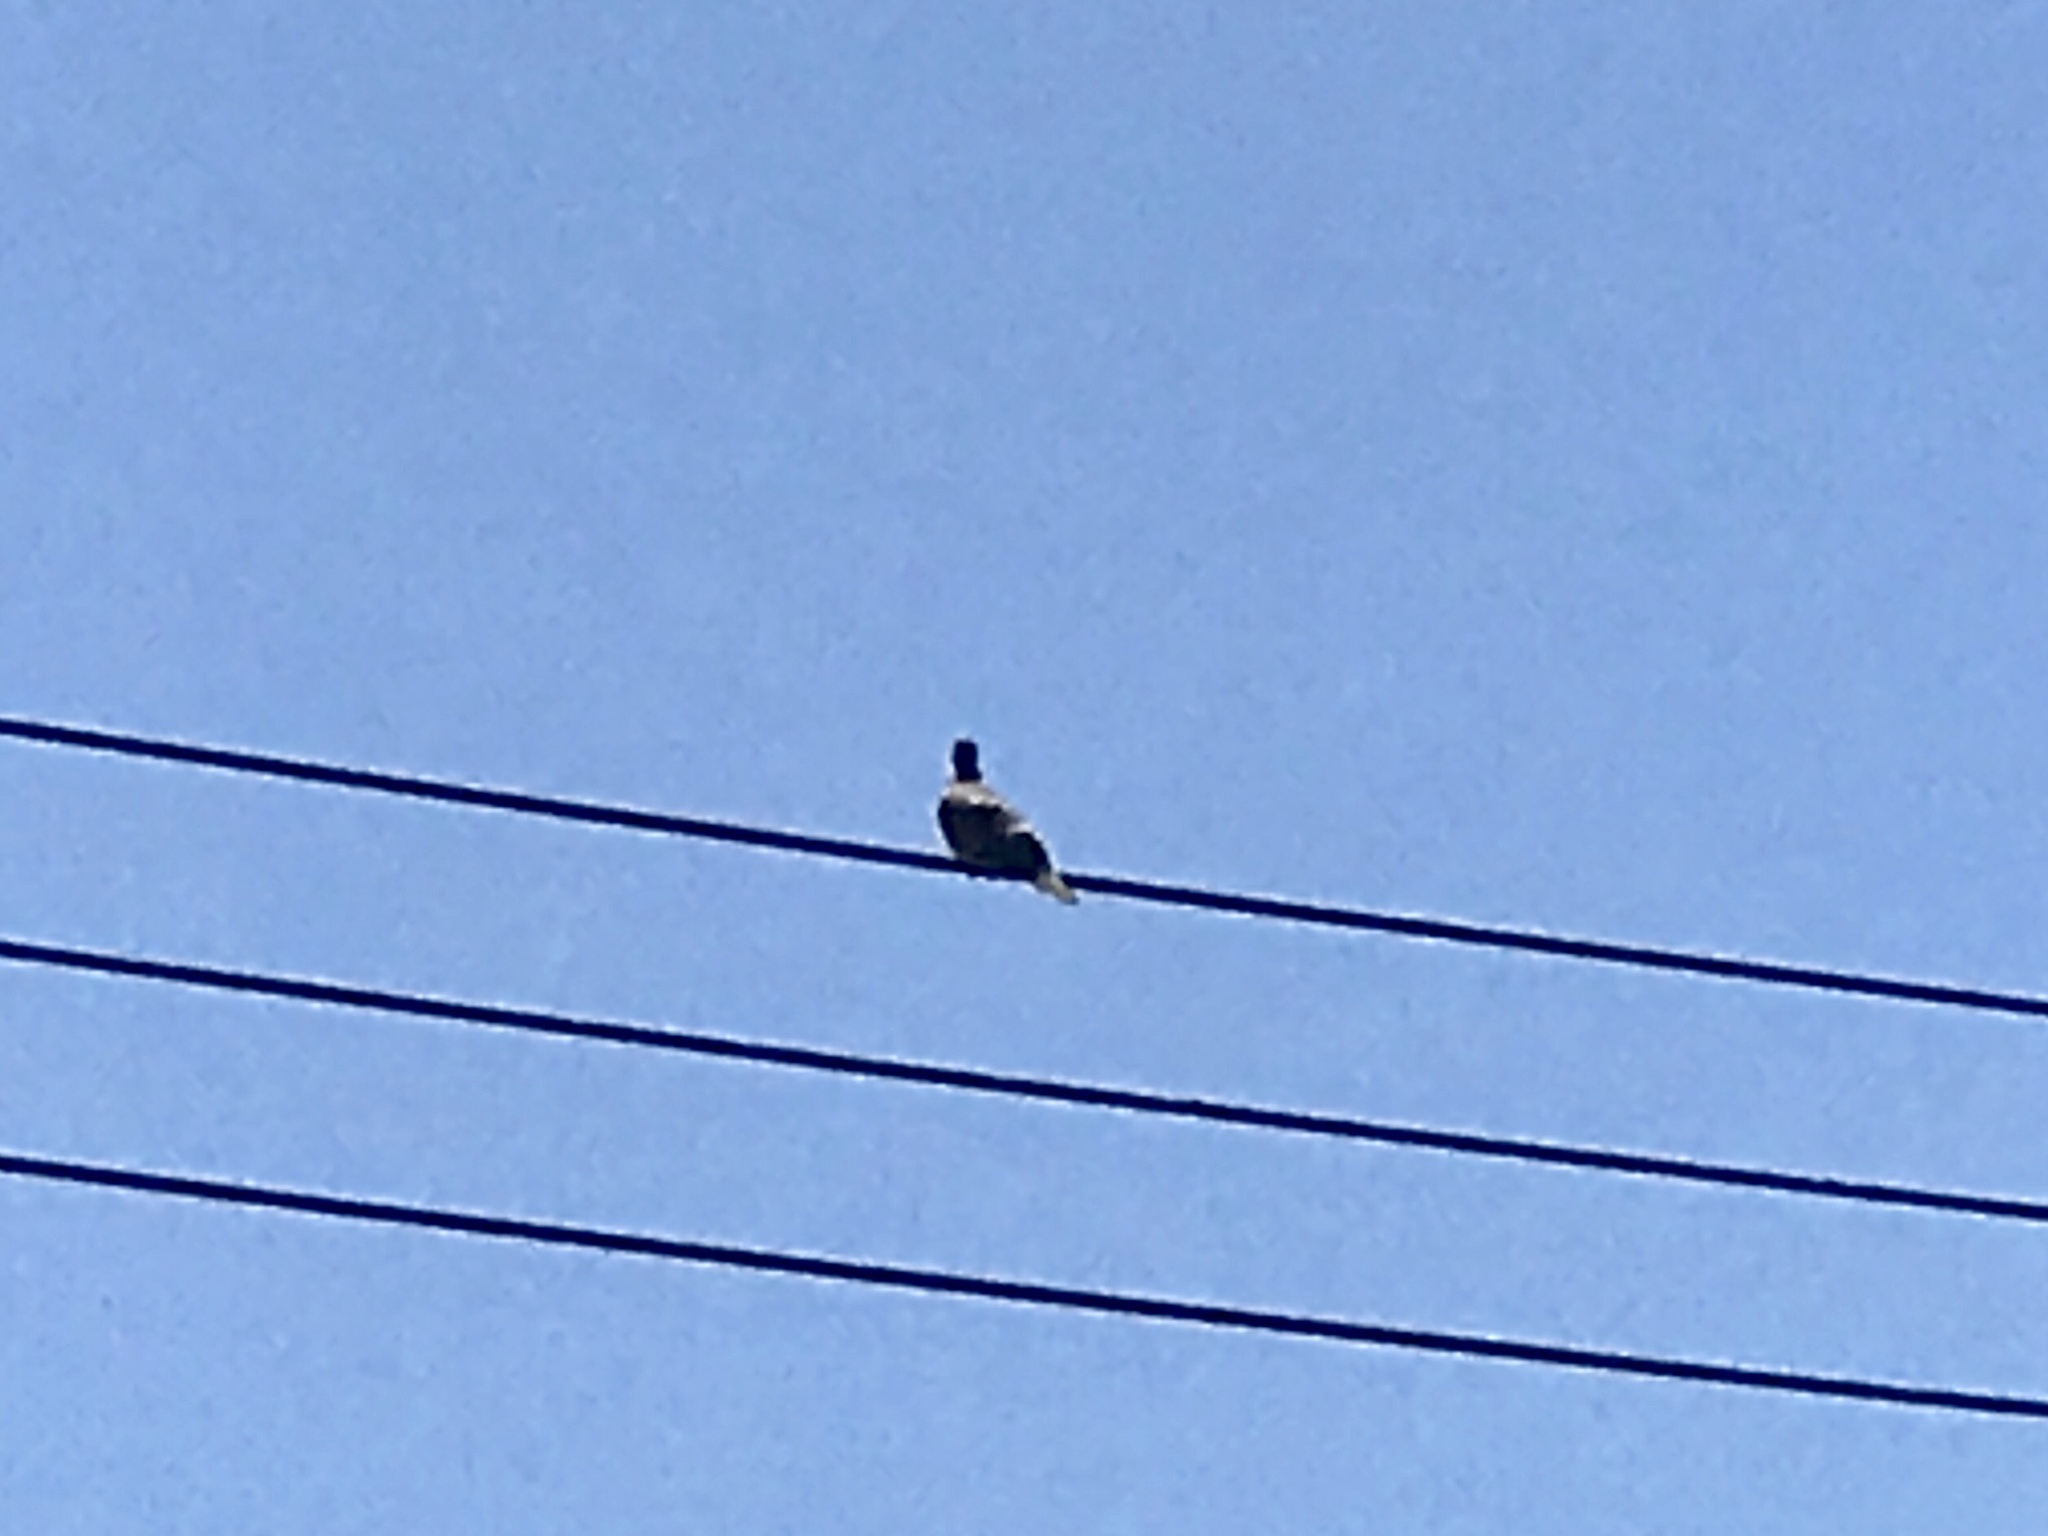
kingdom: Animalia
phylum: Chordata
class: Aves
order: Columbiformes
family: Columbidae
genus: Zenaida
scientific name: Zenaida macroura
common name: Mourning dove
